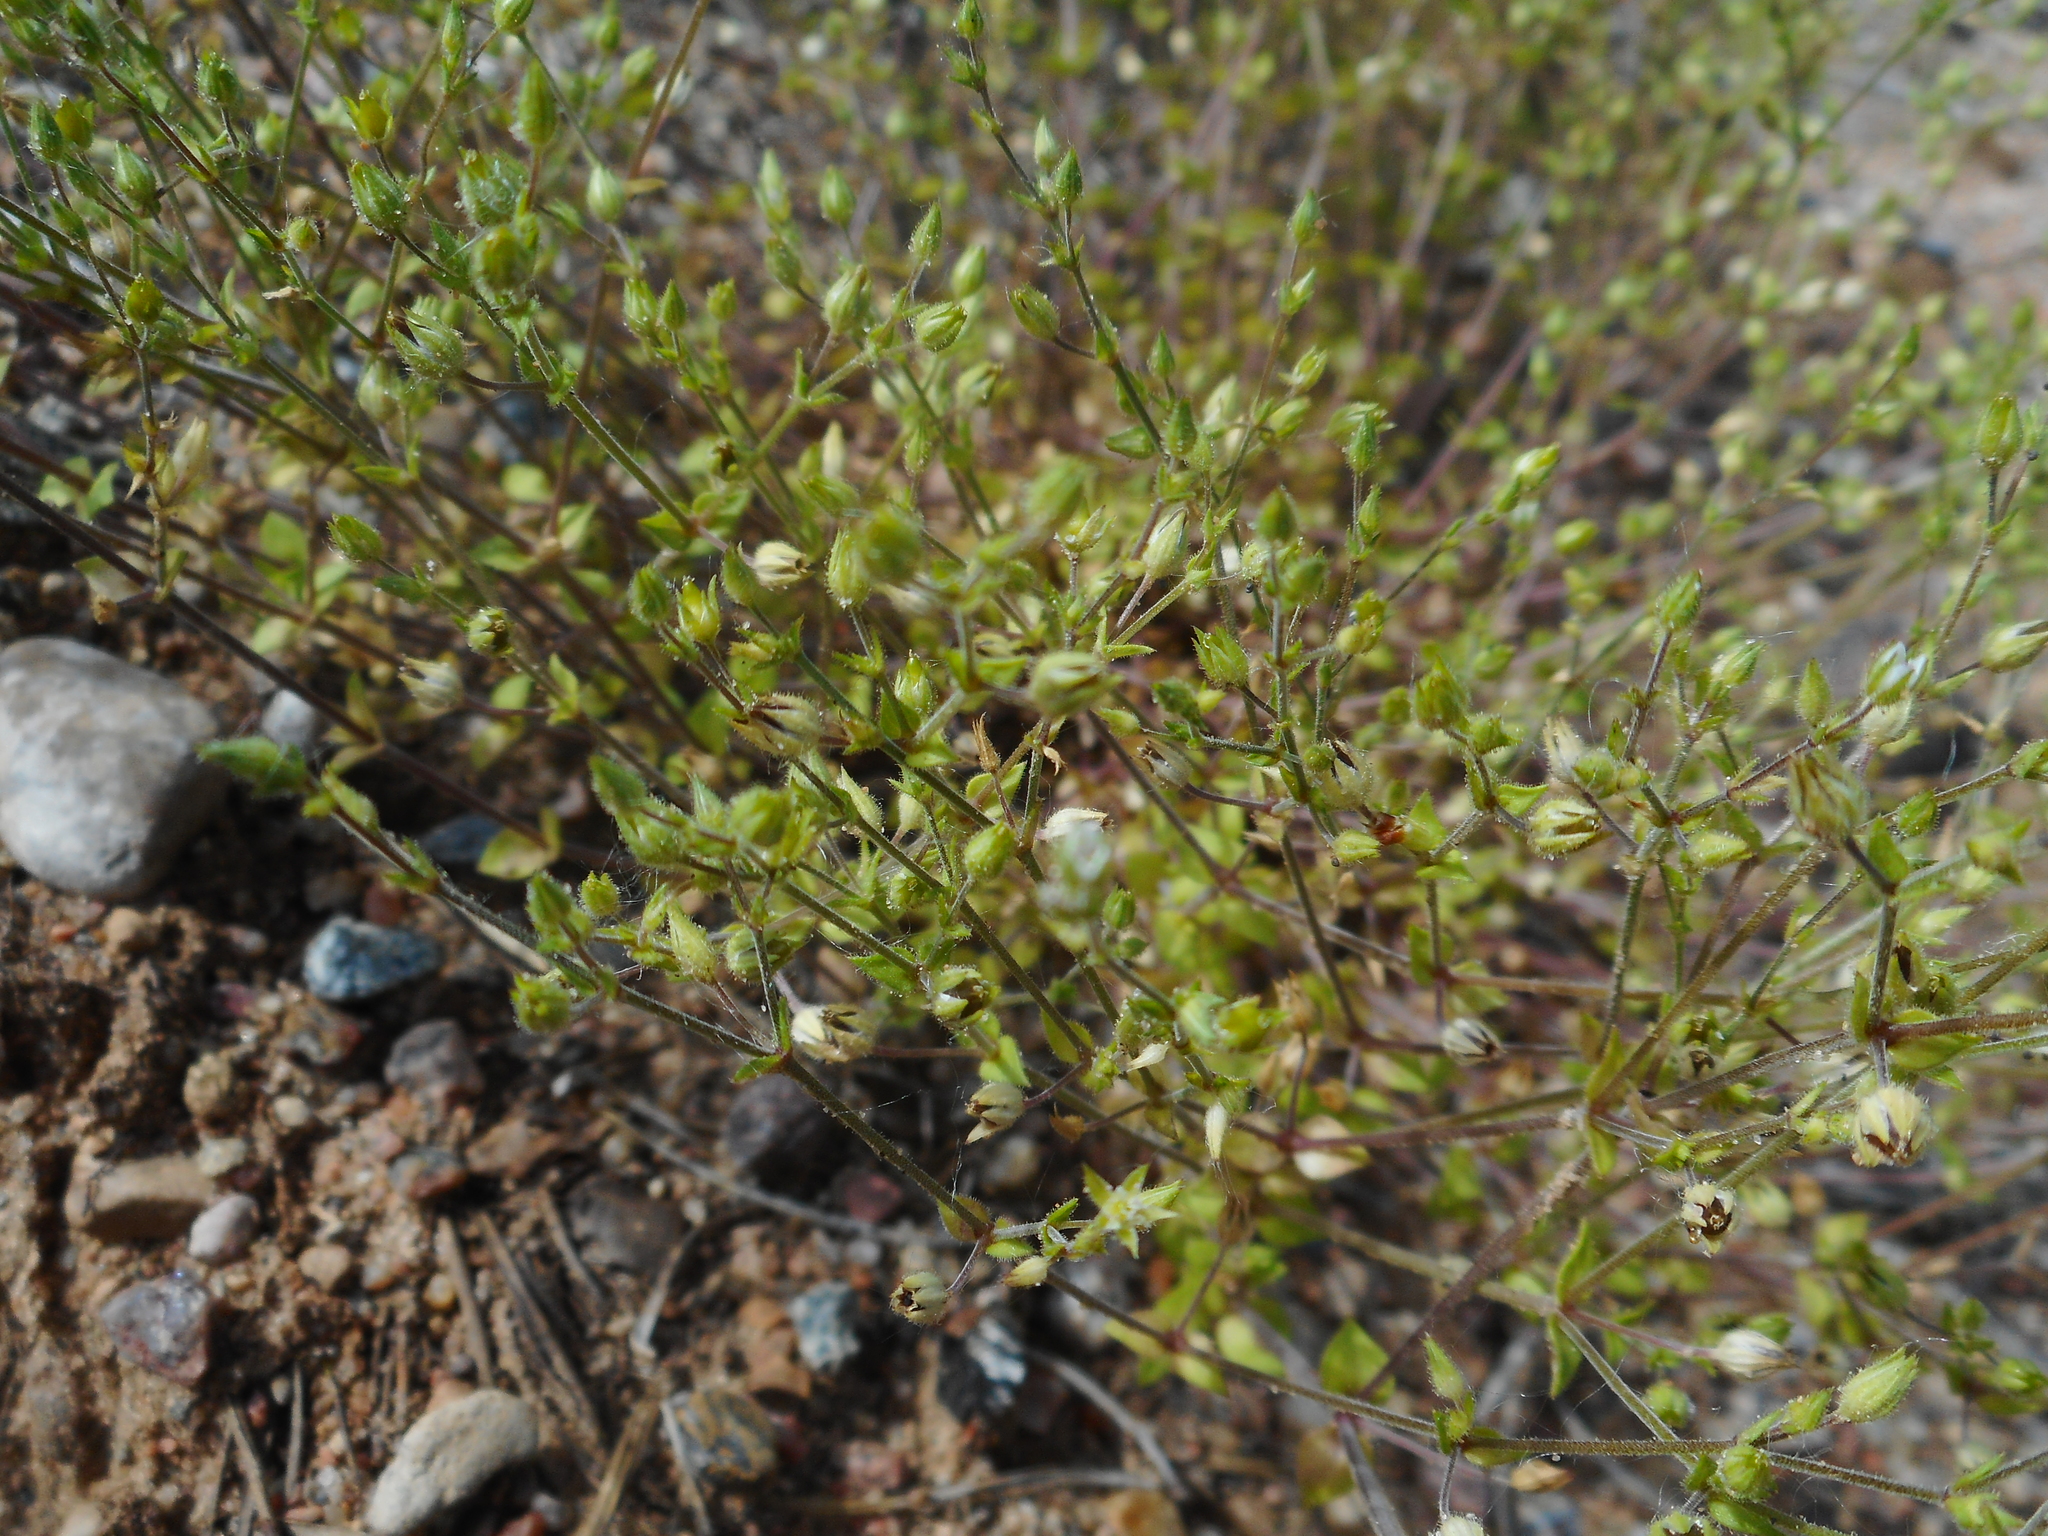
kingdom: Plantae
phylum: Tracheophyta
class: Magnoliopsida
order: Caryophyllales
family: Caryophyllaceae
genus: Arenaria
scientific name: Arenaria serpyllifolia
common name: Thyme-leaved sandwort
